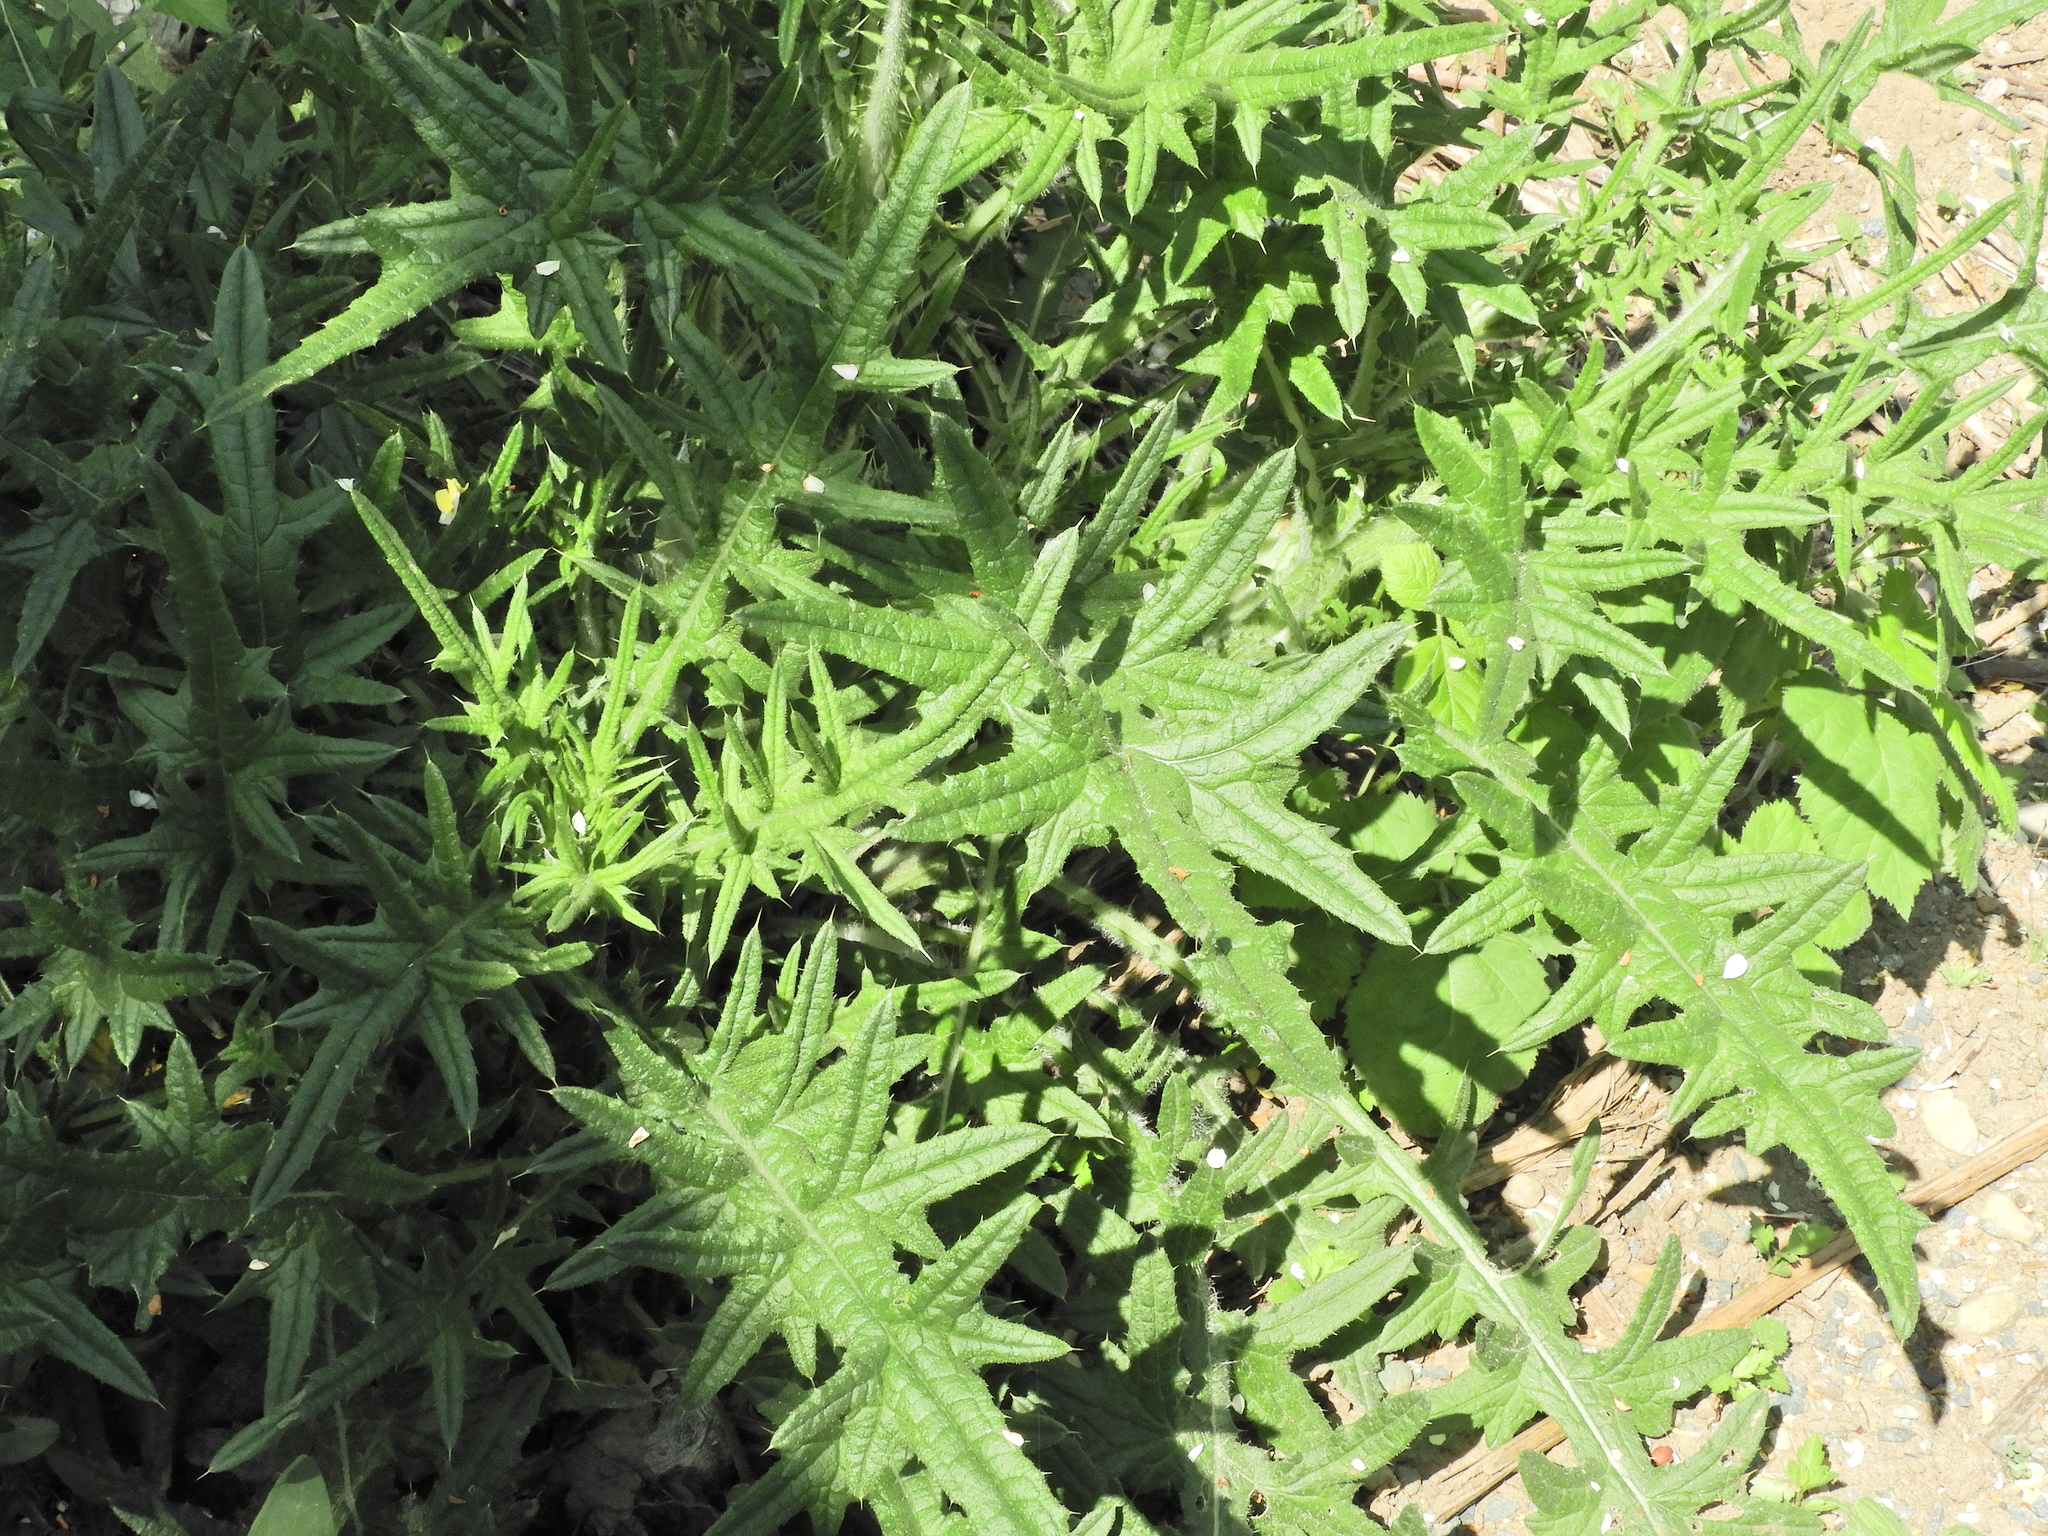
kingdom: Plantae
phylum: Tracheophyta
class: Magnoliopsida
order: Asterales
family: Asteraceae
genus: Cirsium
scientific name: Cirsium vulgare
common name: Bull thistle
